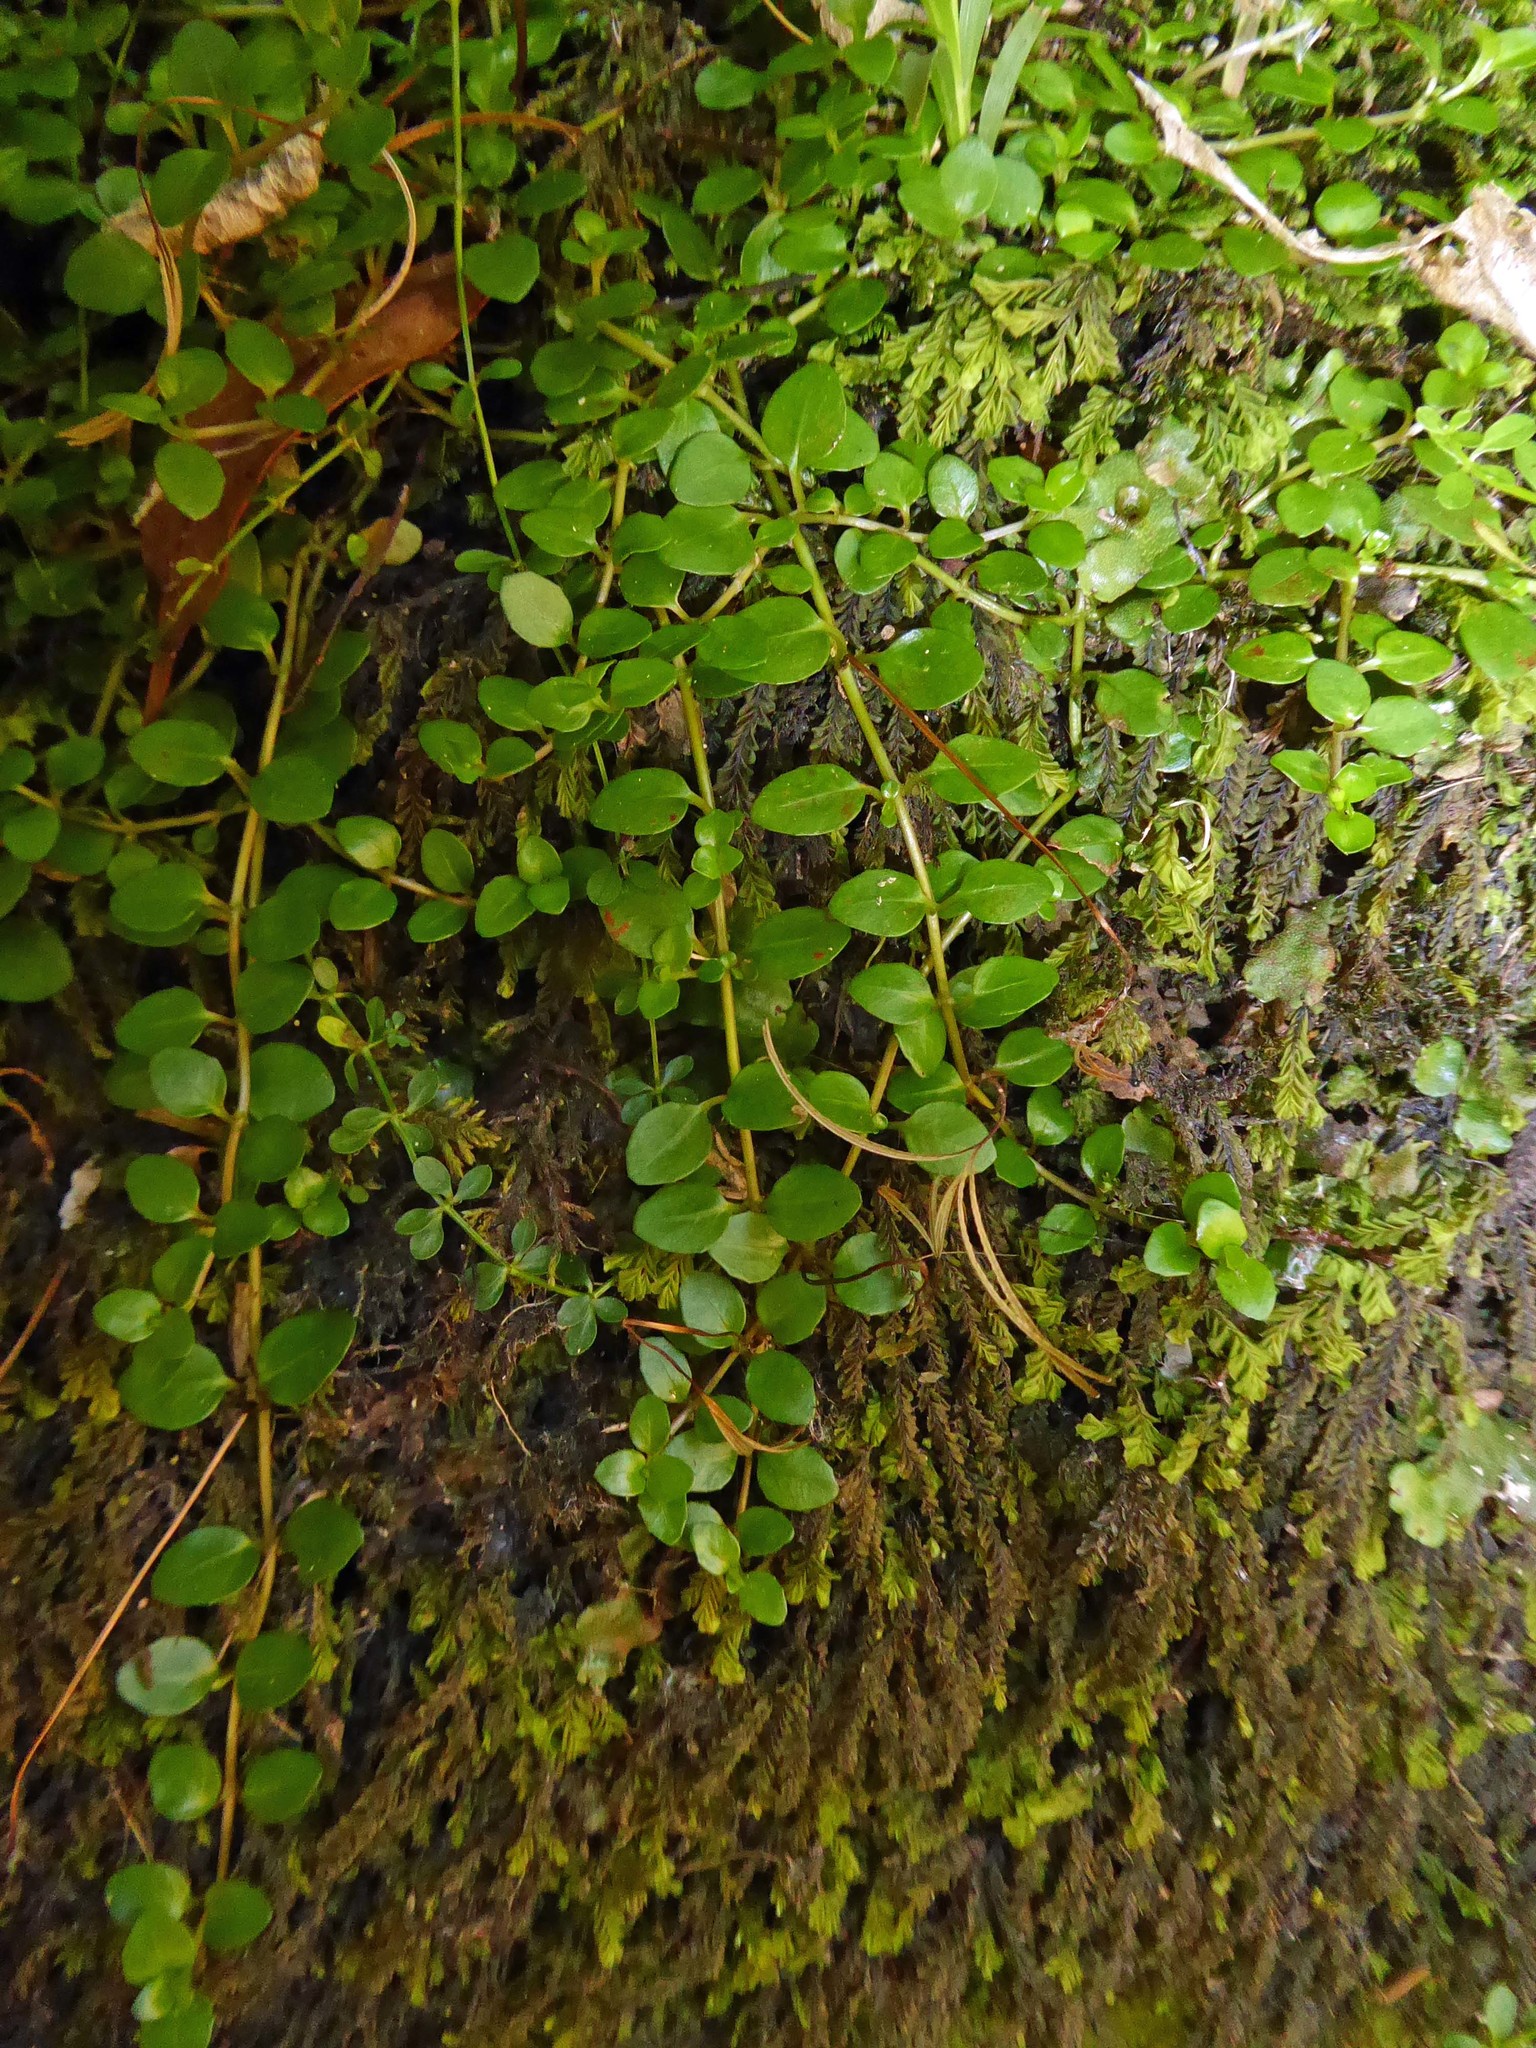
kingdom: Plantae
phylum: Tracheophyta
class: Magnoliopsida
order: Myrtales
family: Onagraceae
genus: Epilobium
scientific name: Epilobium brunnescens
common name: New zealand willowherb
